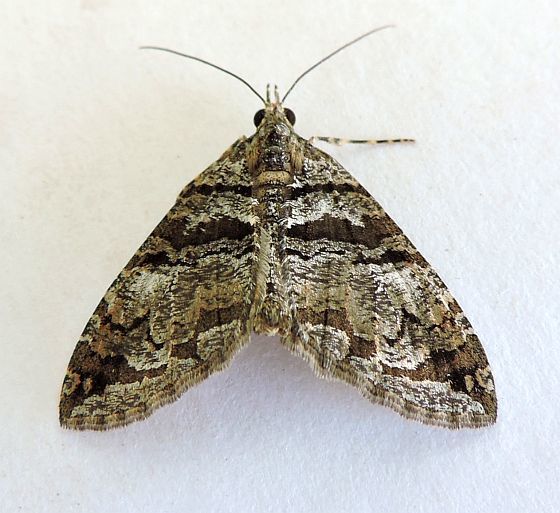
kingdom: Animalia
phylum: Arthropoda
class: Insecta
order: Lepidoptera
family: Geometridae
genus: Hydriomena
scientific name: Hydriomena barnesata
